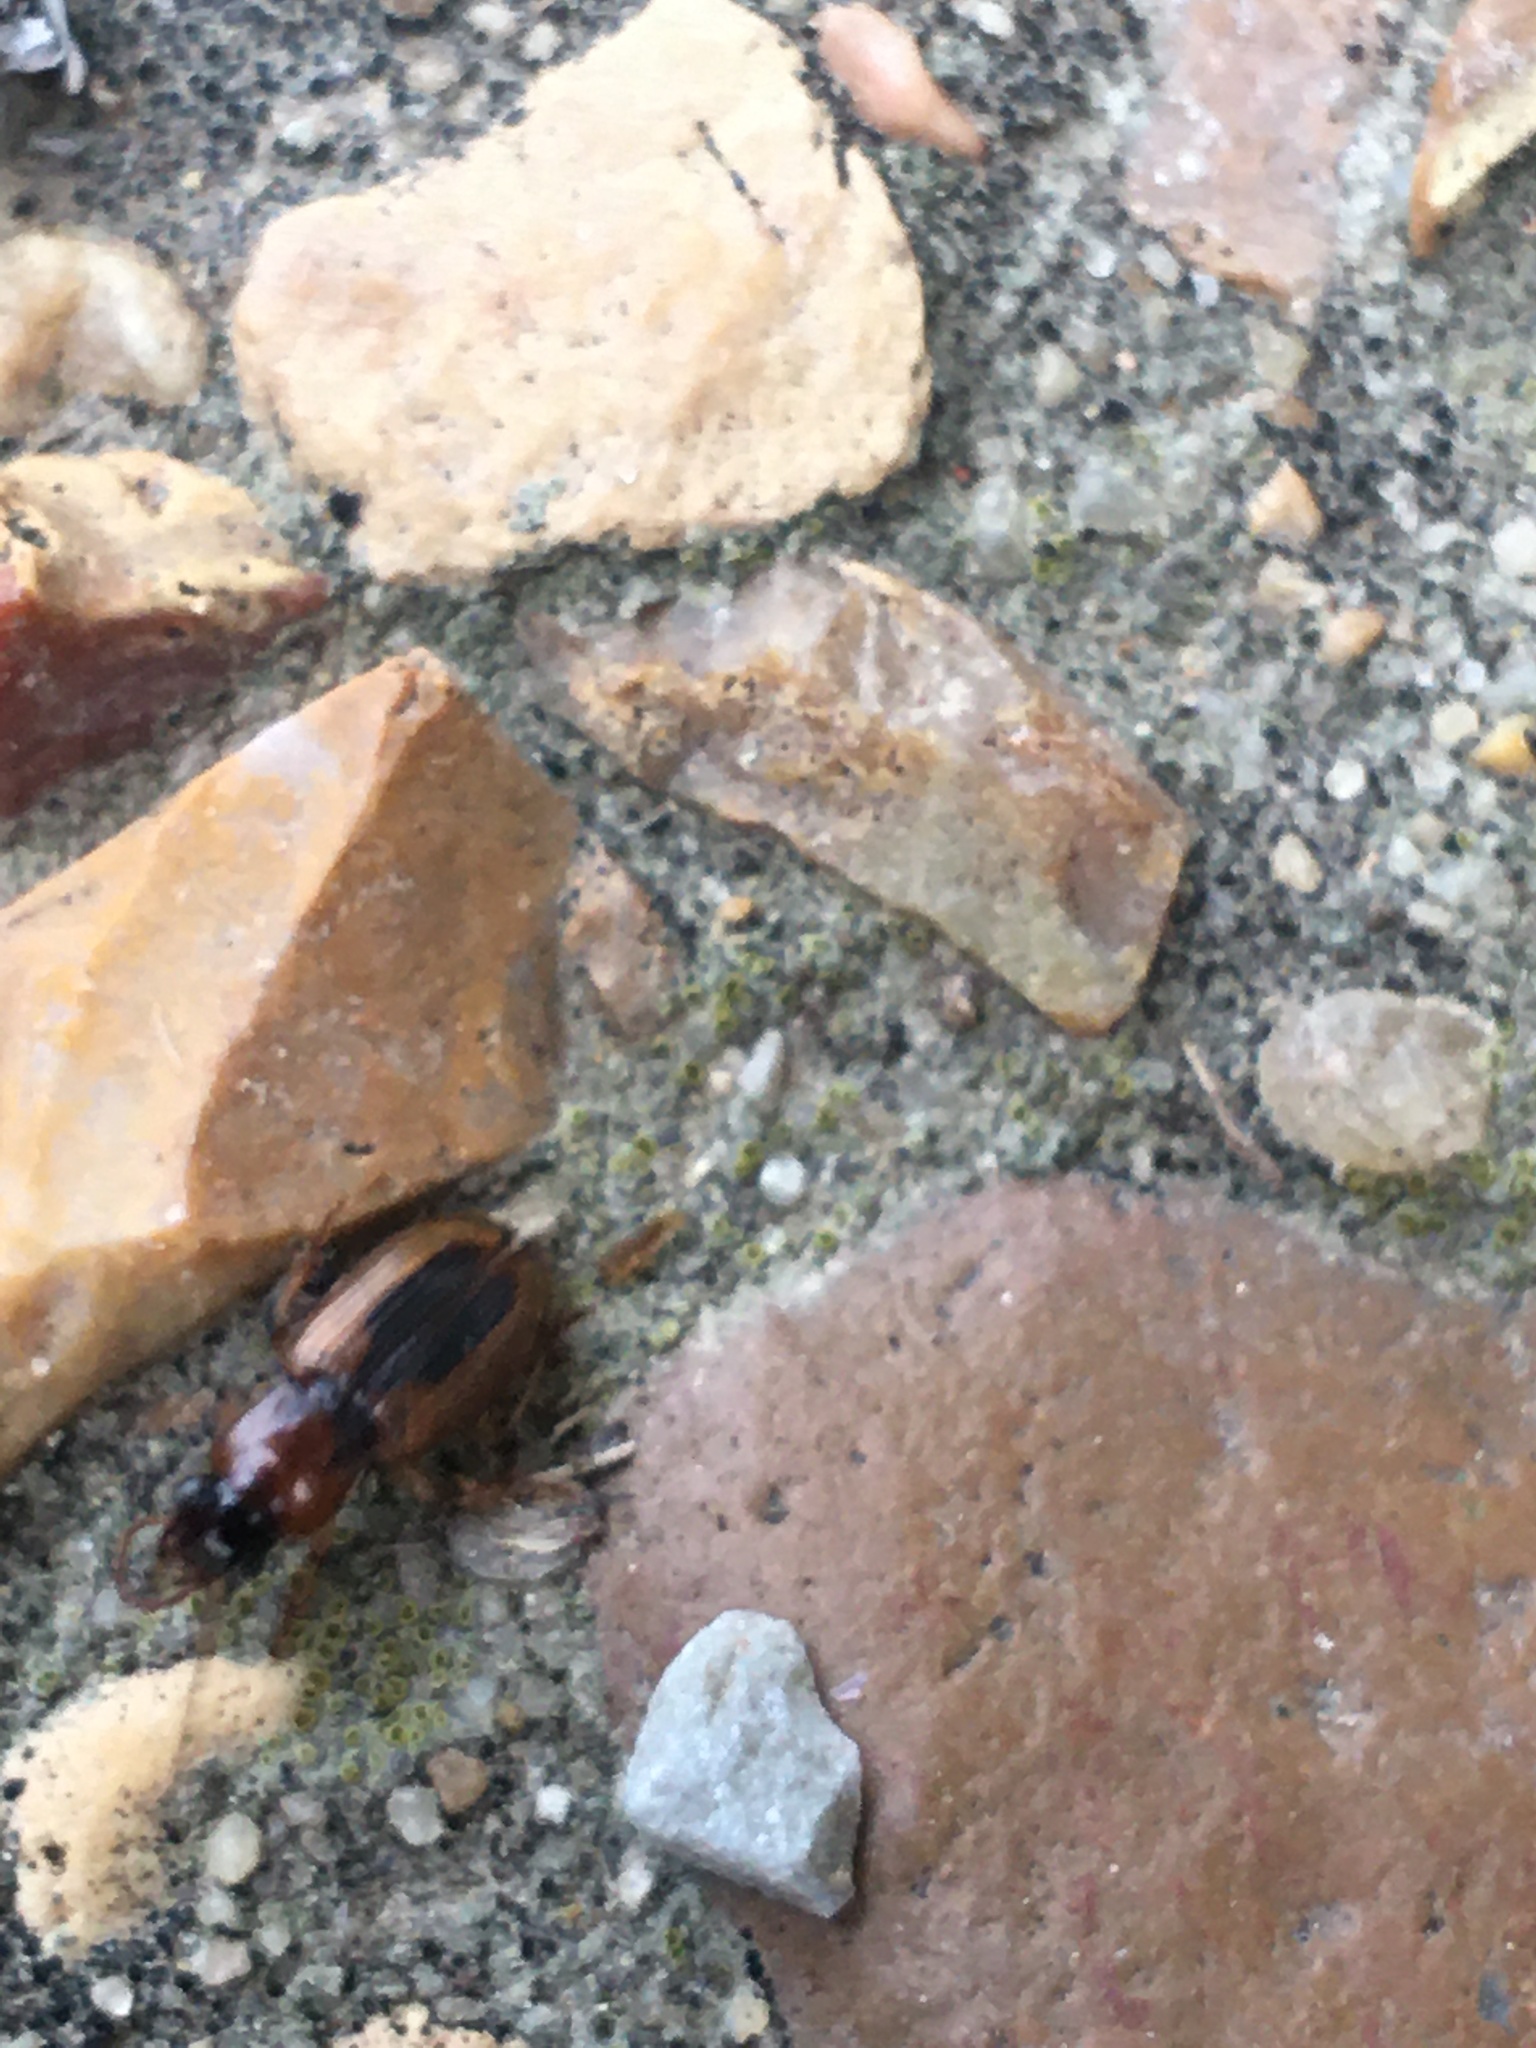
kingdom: Animalia
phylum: Arthropoda
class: Insecta
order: Coleoptera
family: Carabidae
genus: Stenolophus
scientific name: Stenolophus lecontei
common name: Leconte's seedcorn beetle
